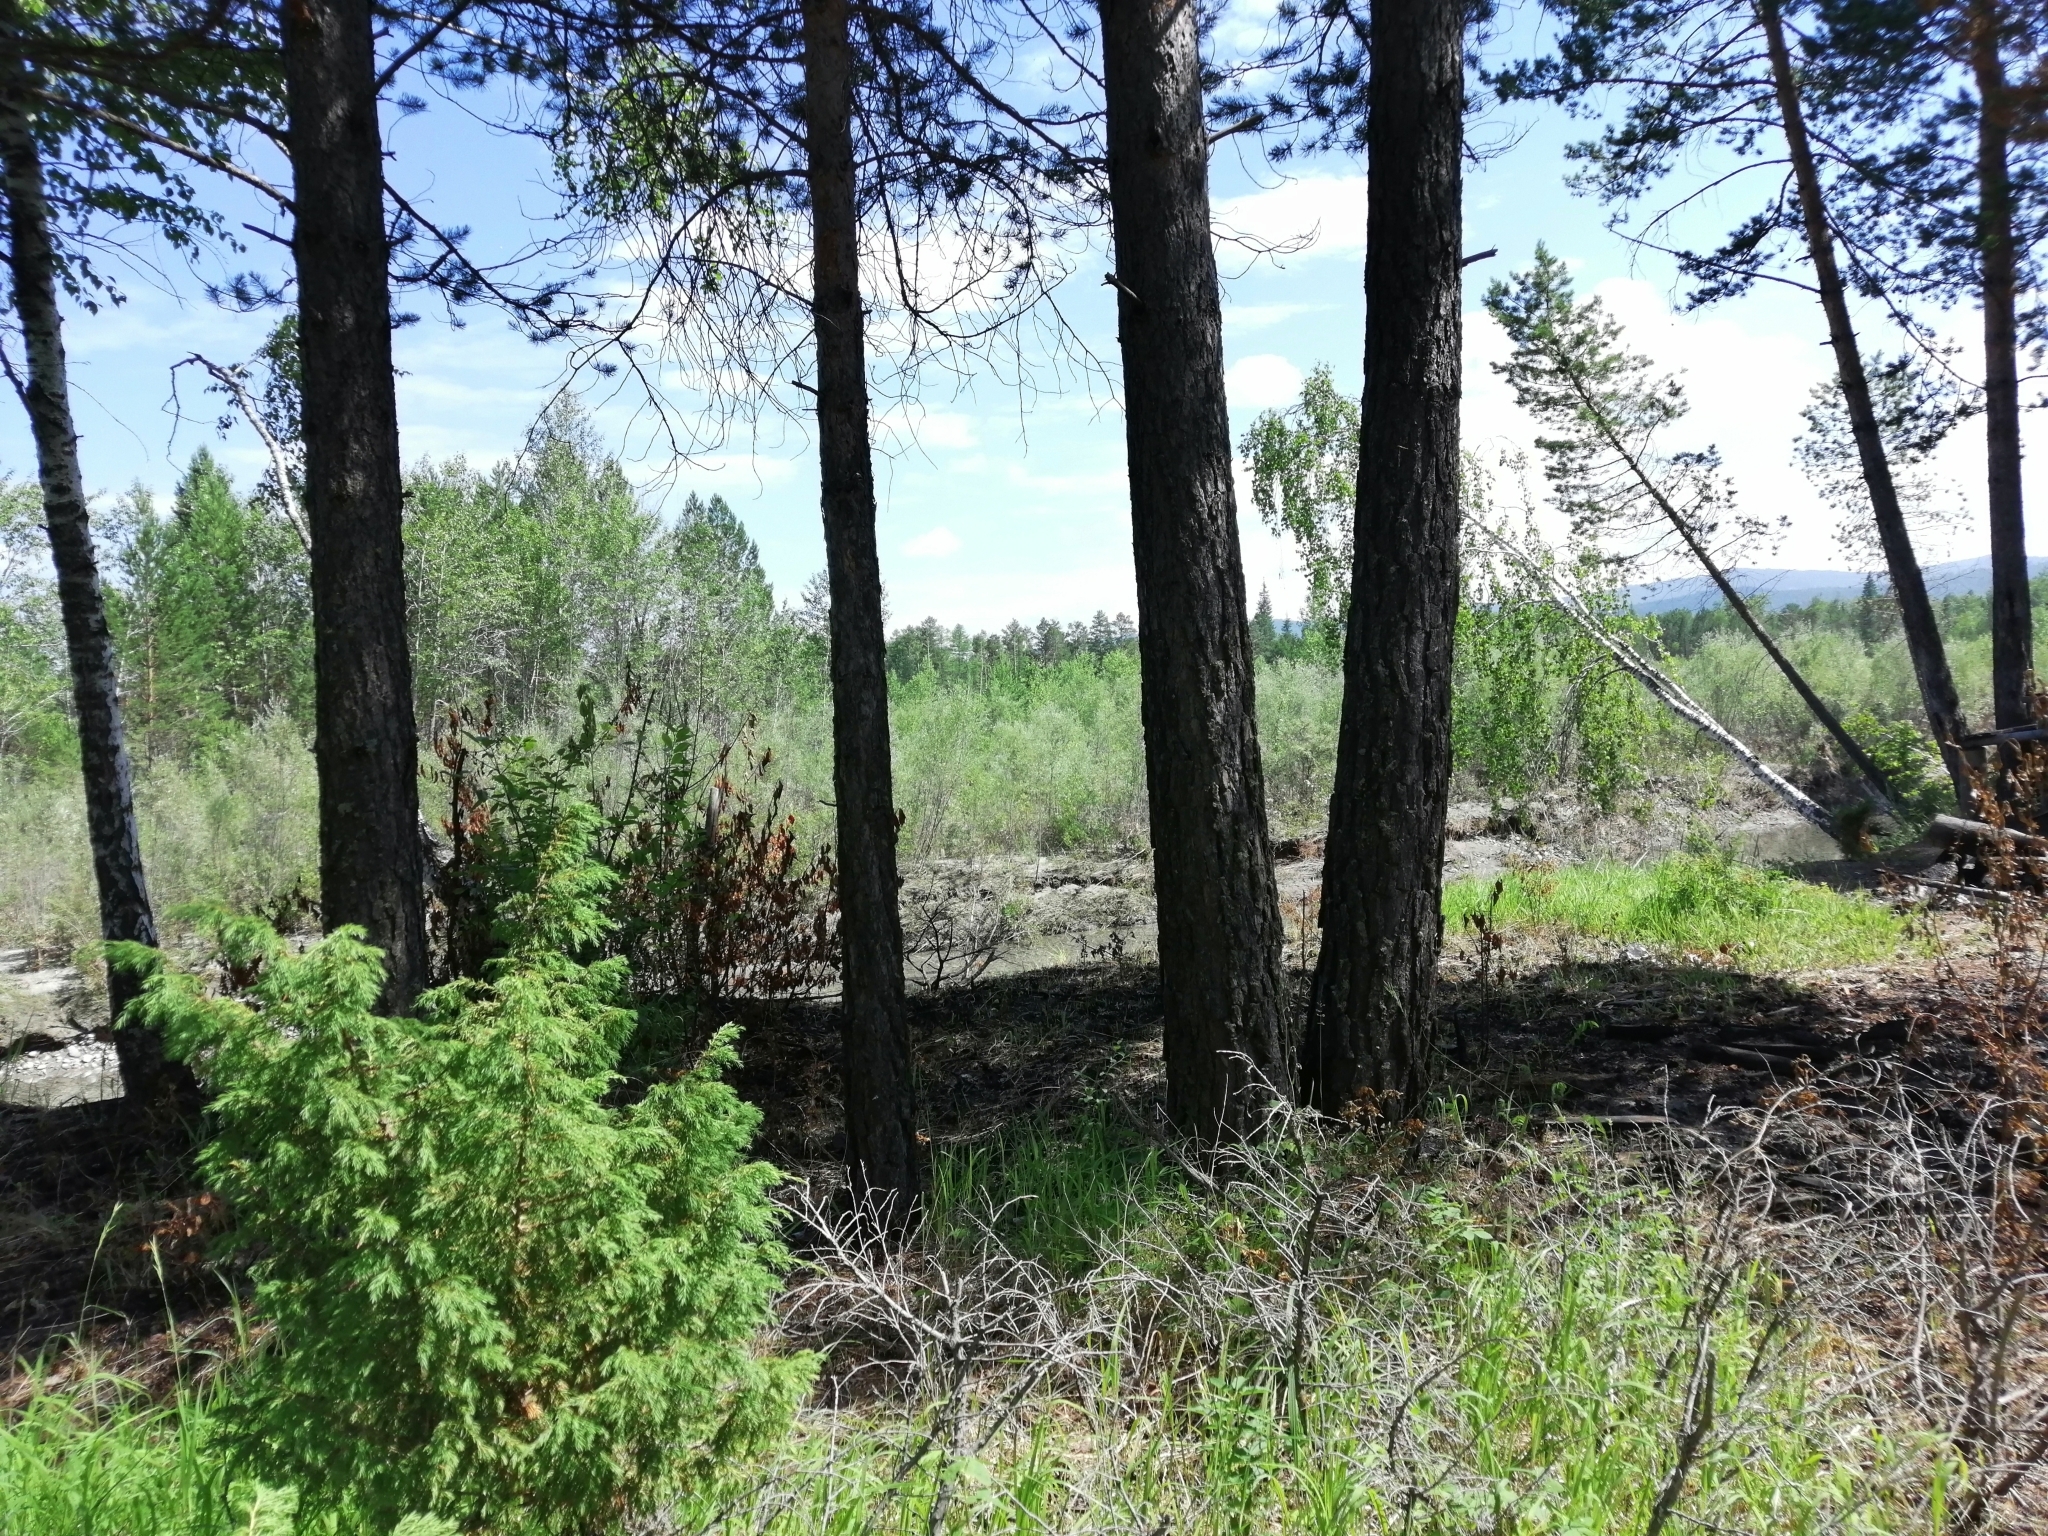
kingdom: Plantae
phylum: Tracheophyta
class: Pinopsida
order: Pinales
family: Cupressaceae
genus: Juniperus
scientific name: Juniperus communis
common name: Common juniper
